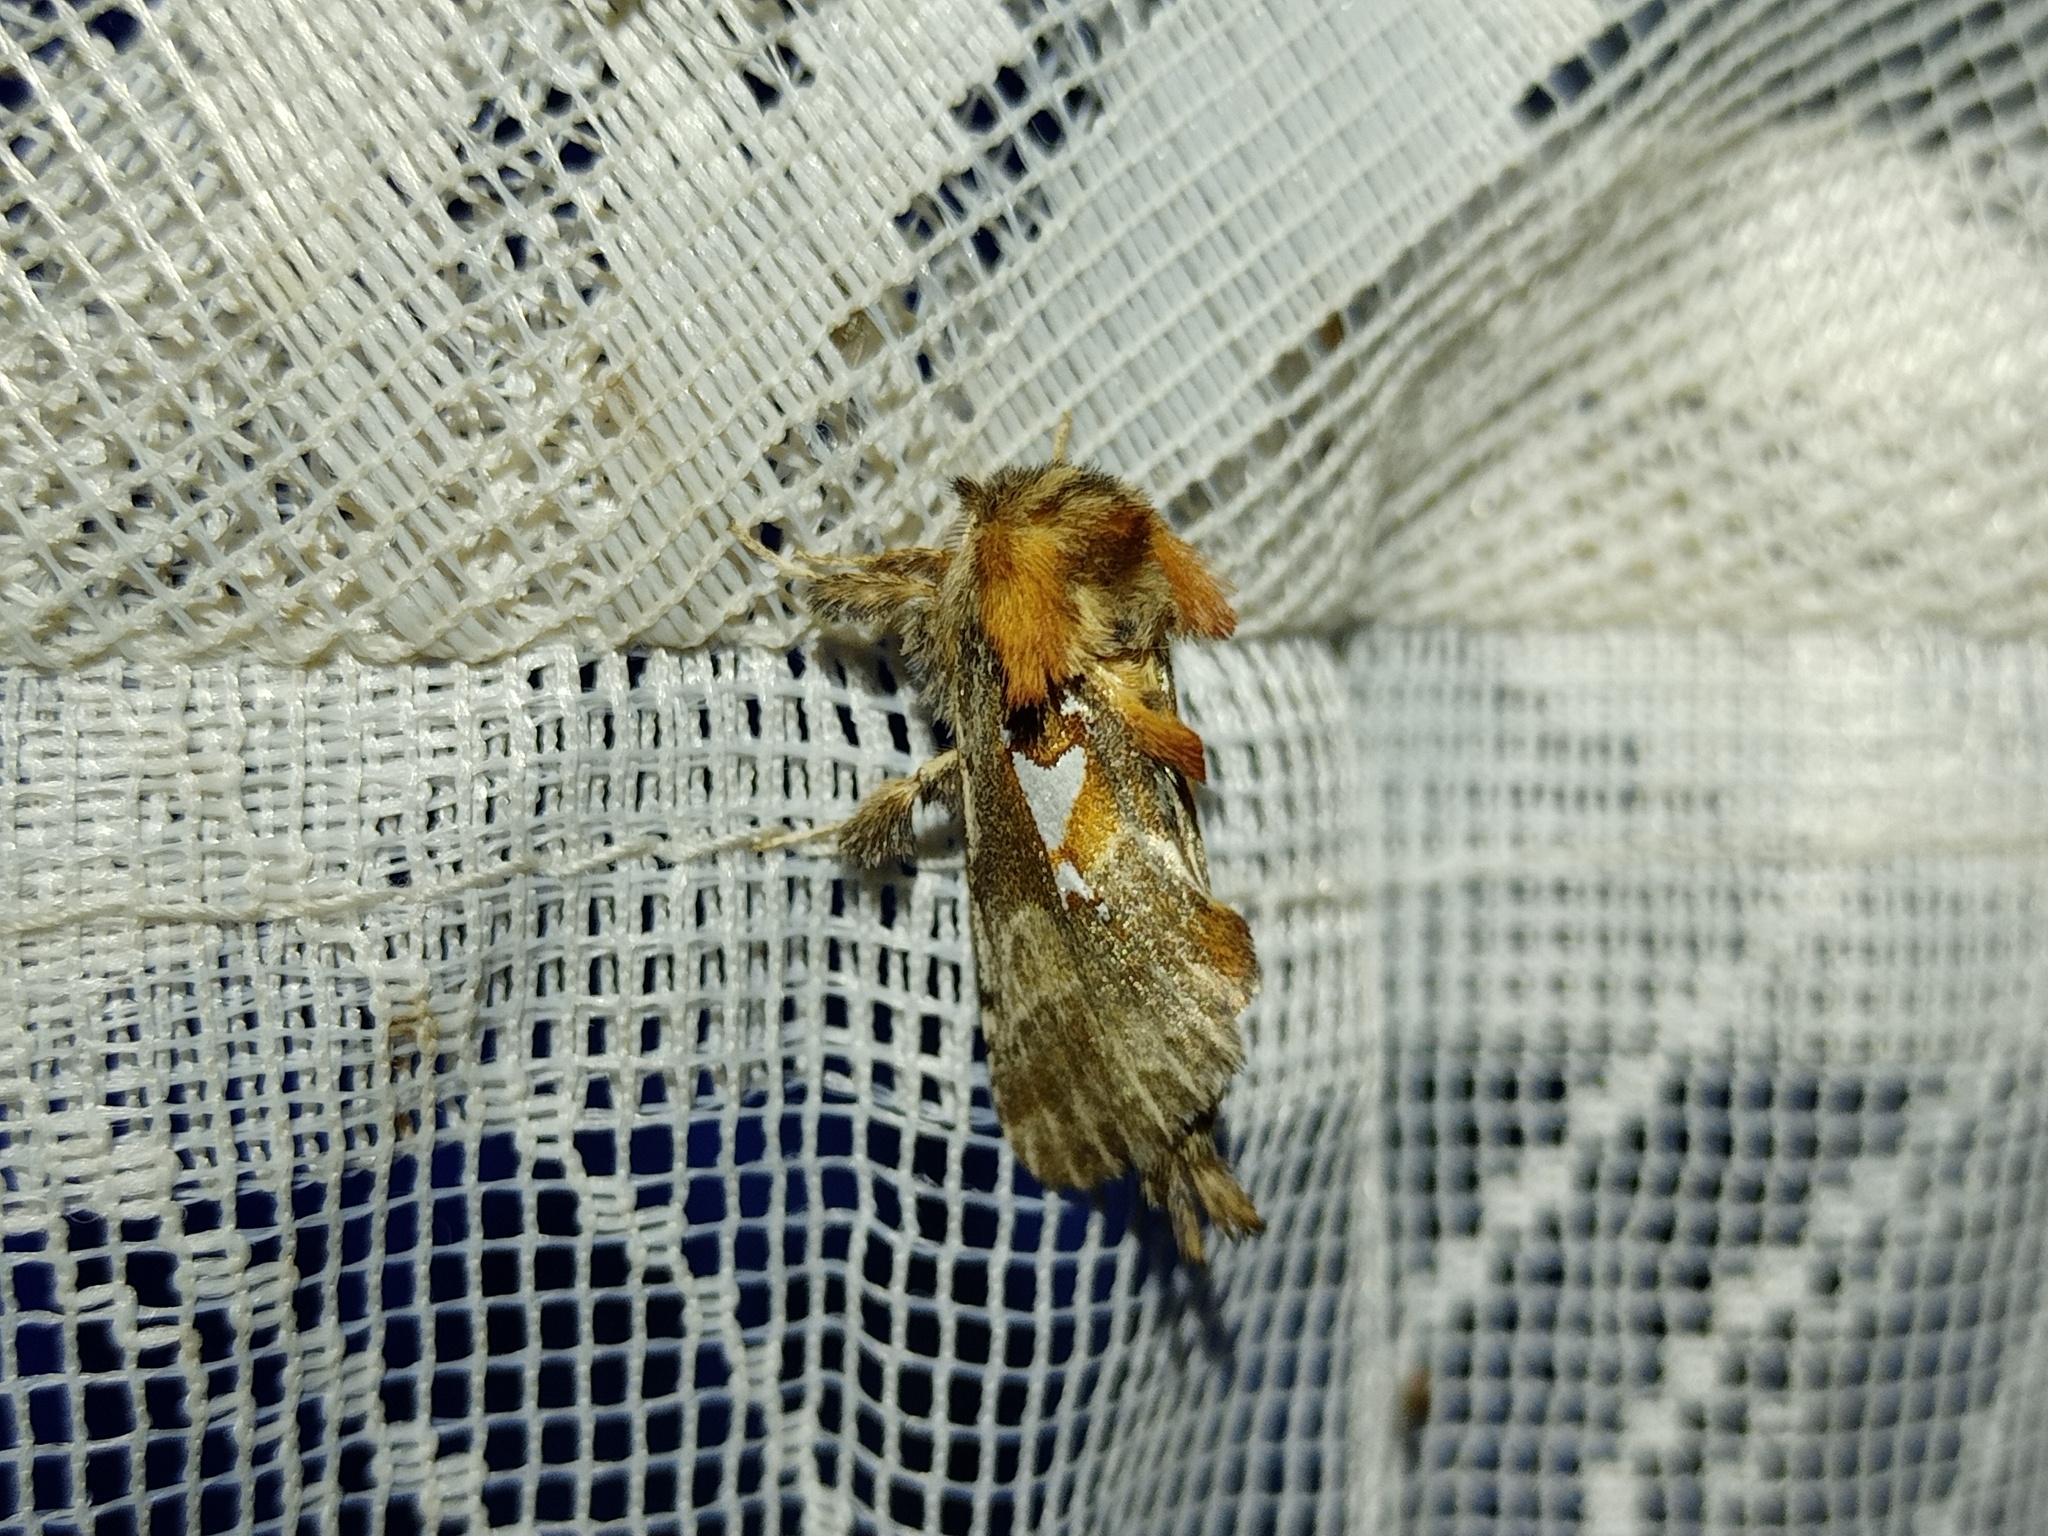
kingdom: Animalia
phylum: Arthropoda
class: Insecta
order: Lepidoptera
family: Notodontidae
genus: Spatalia
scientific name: Spatalia argentina
